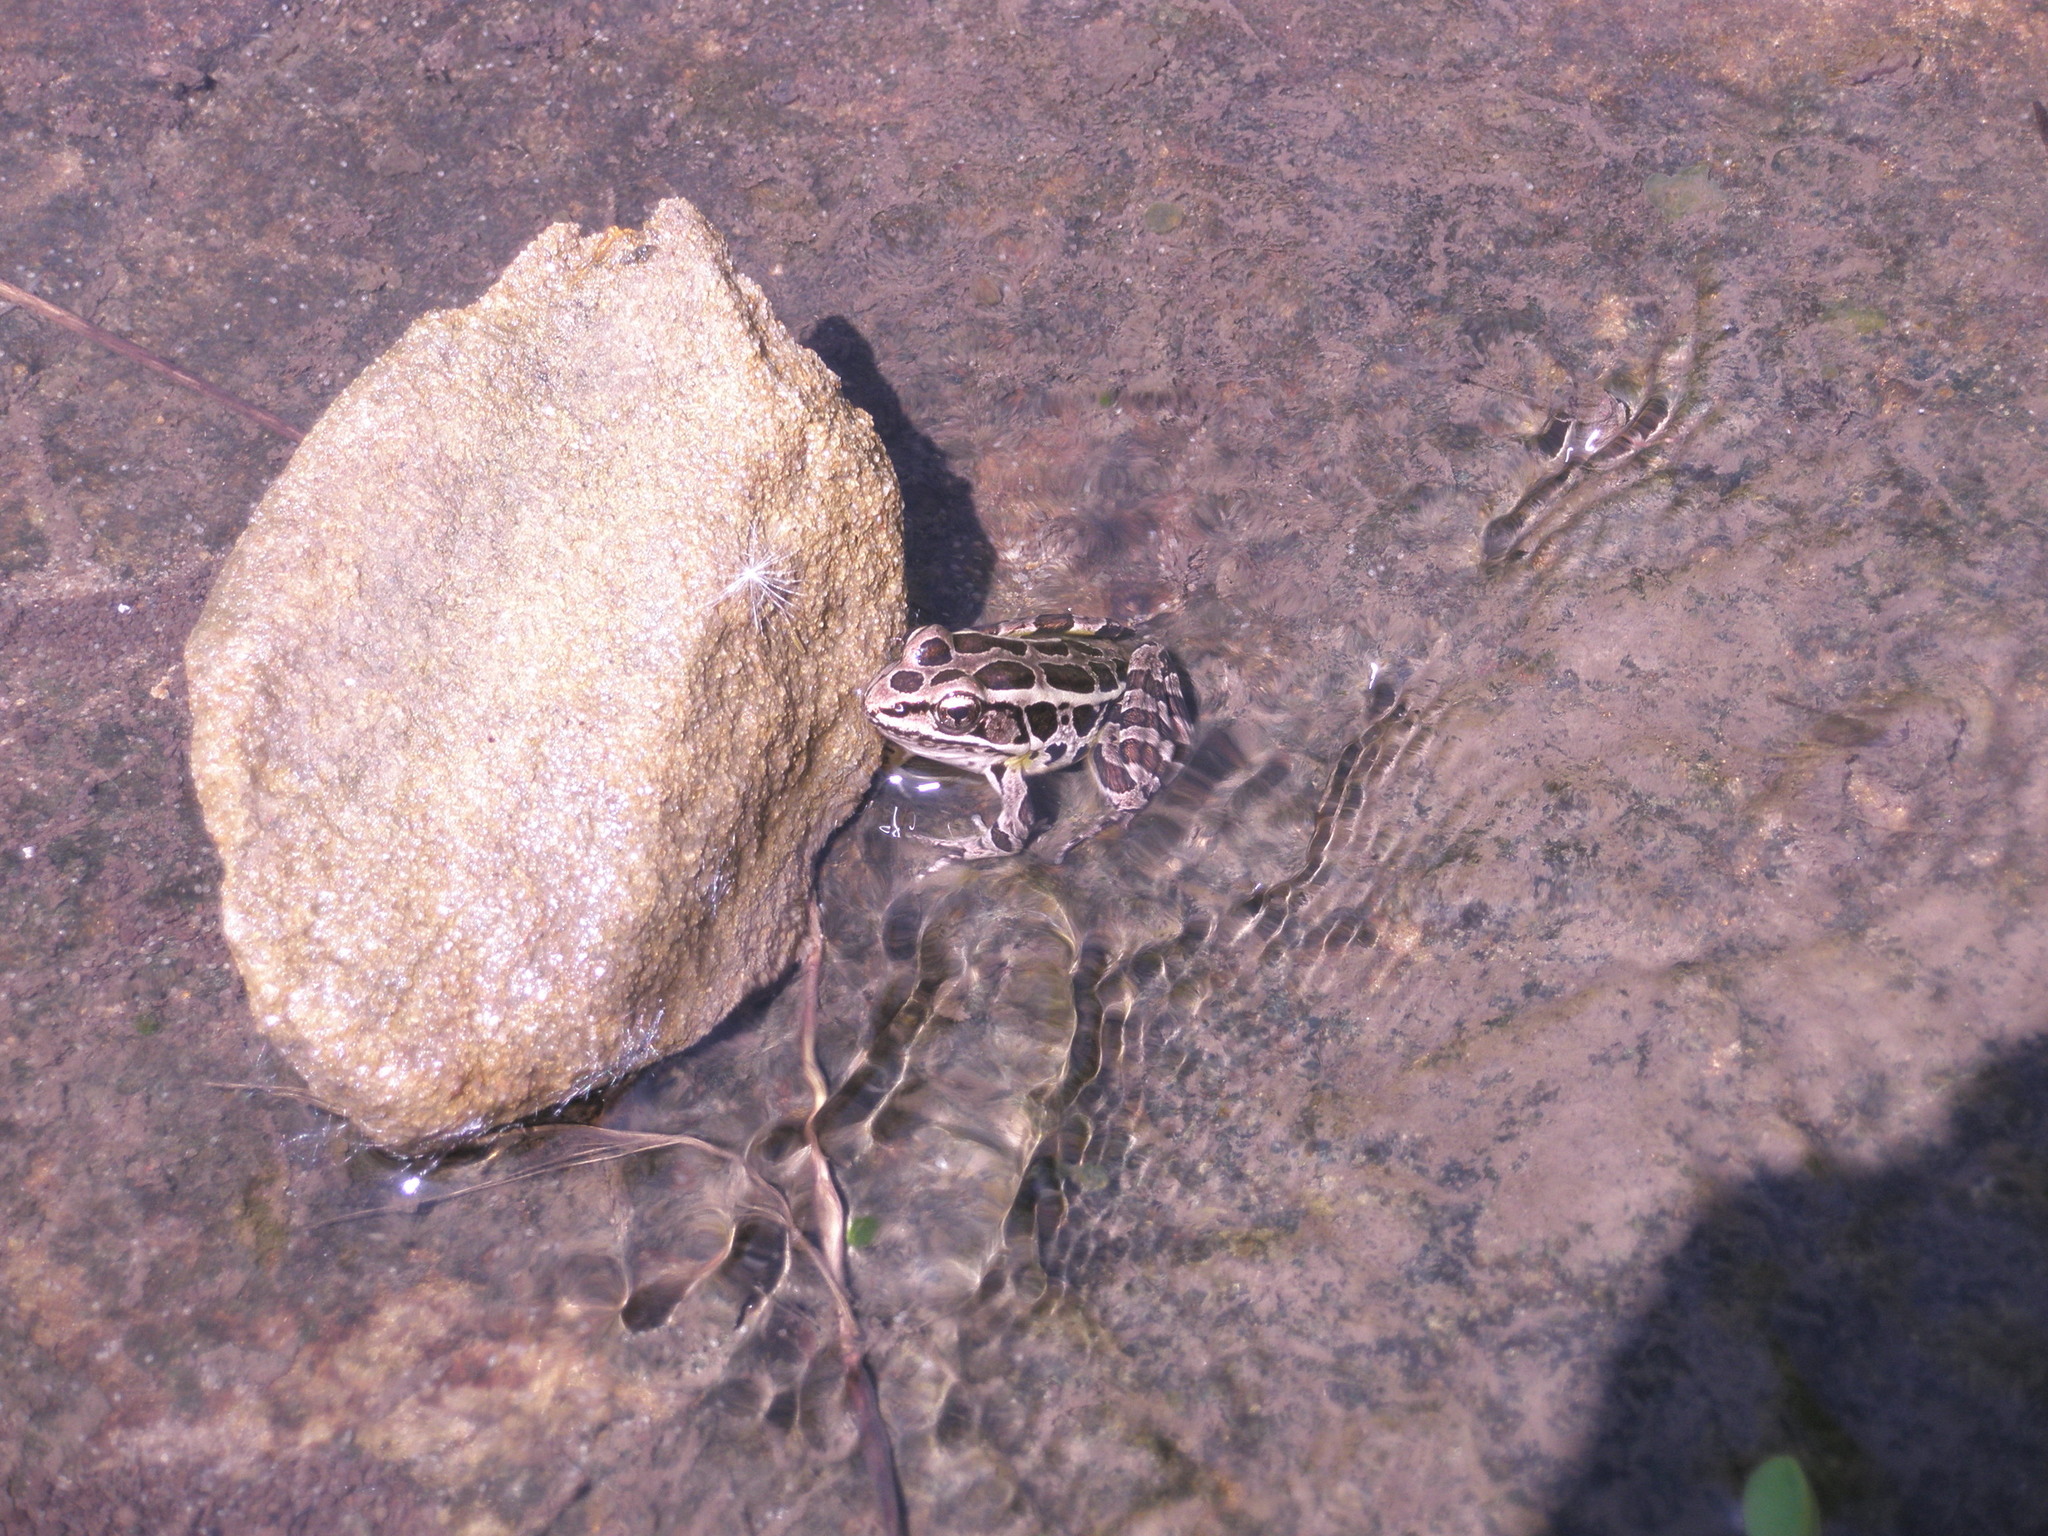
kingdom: Animalia
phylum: Chordata
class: Amphibia
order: Anura
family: Ranidae
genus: Lithobates
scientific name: Lithobates palustris
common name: Pickerel frog
